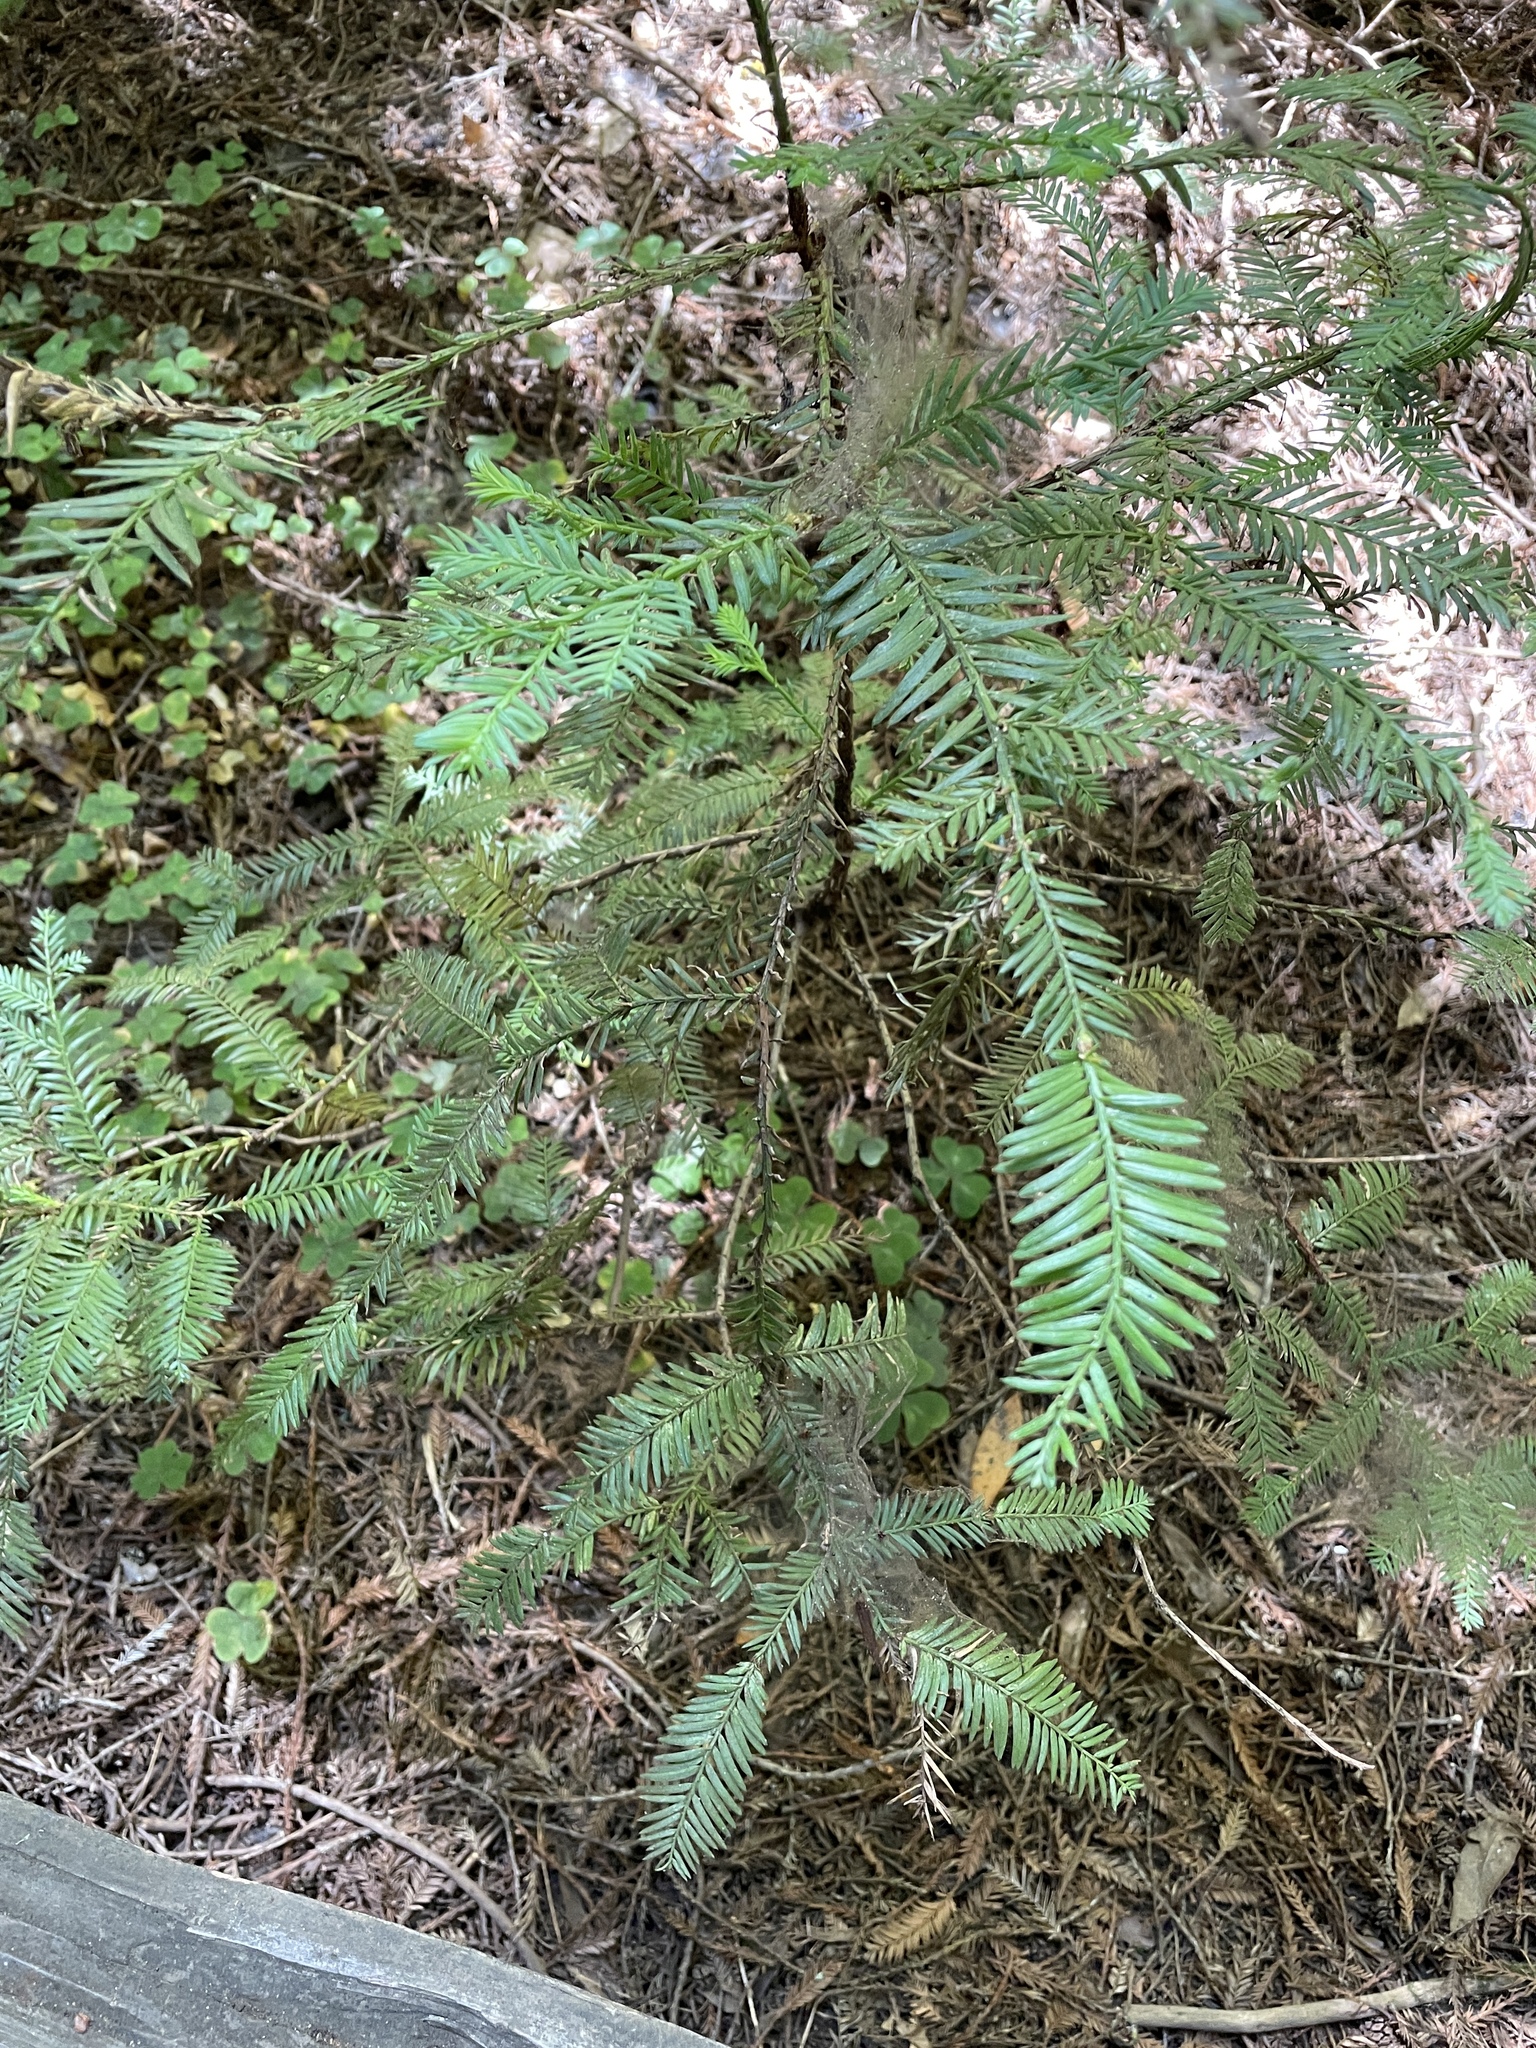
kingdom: Plantae
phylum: Tracheophyta
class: Pinopsida
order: Pinales
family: Cupressaceae
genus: Sequoia
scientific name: Sequoia sempervirens
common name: Coast redwood
